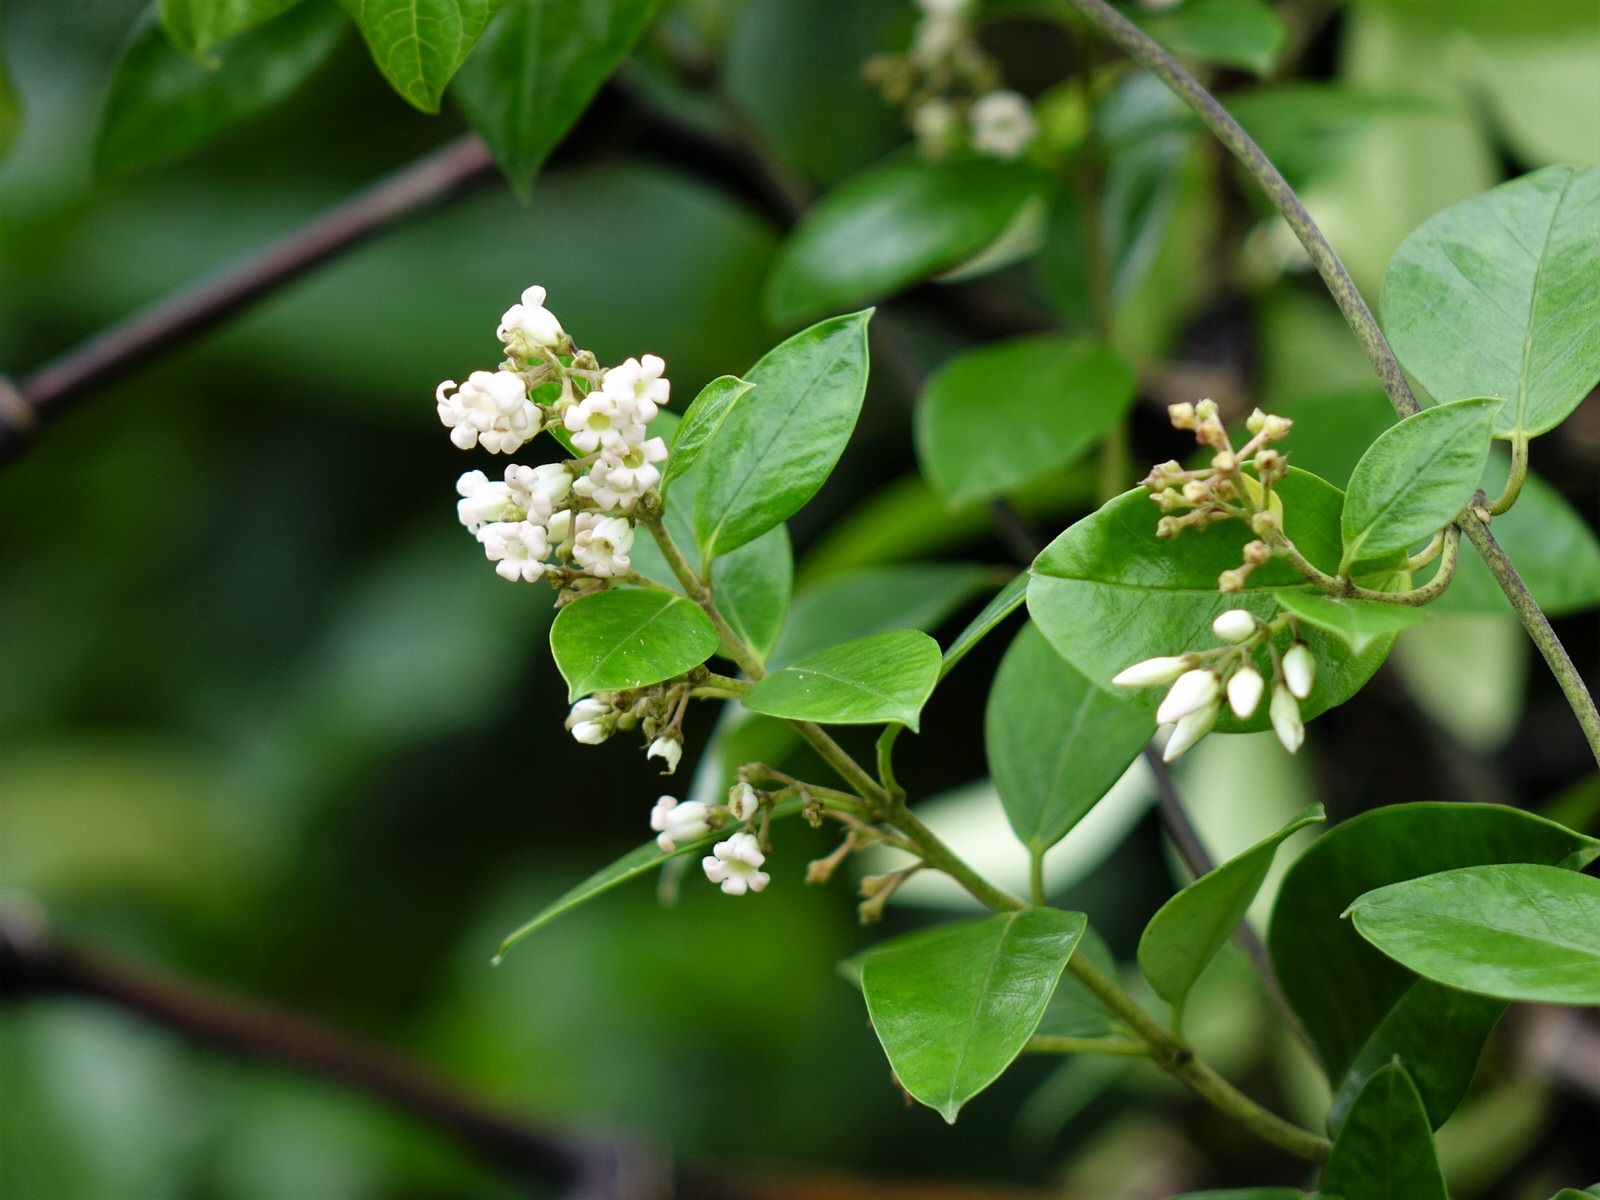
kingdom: Plantae
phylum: Tracheophyta
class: Magnoliopsida
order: Gentianales
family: Apocynaceae
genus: Parsonsia
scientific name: Parsonsia heterophylla
